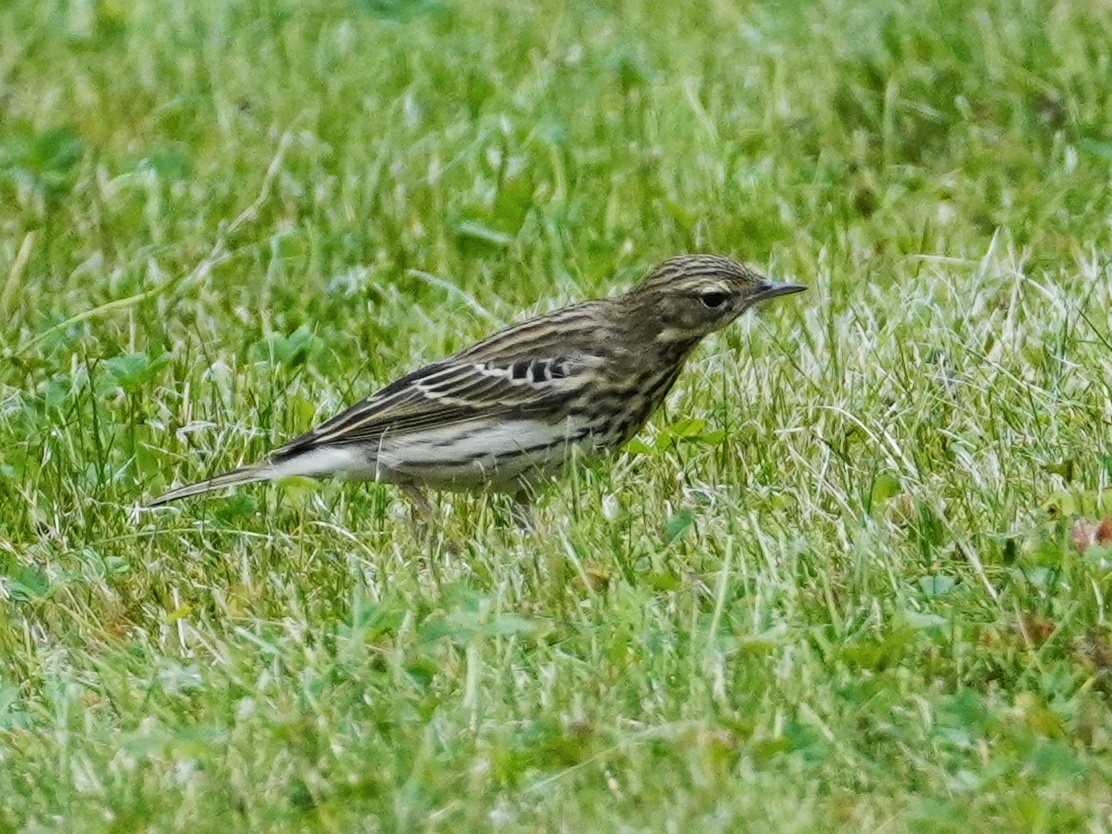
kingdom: Animalia
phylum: Chordata
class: Aves
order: Passeriformes
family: Motacillidae
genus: Anthus
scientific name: Anthus trivialis
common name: Tree pipit
